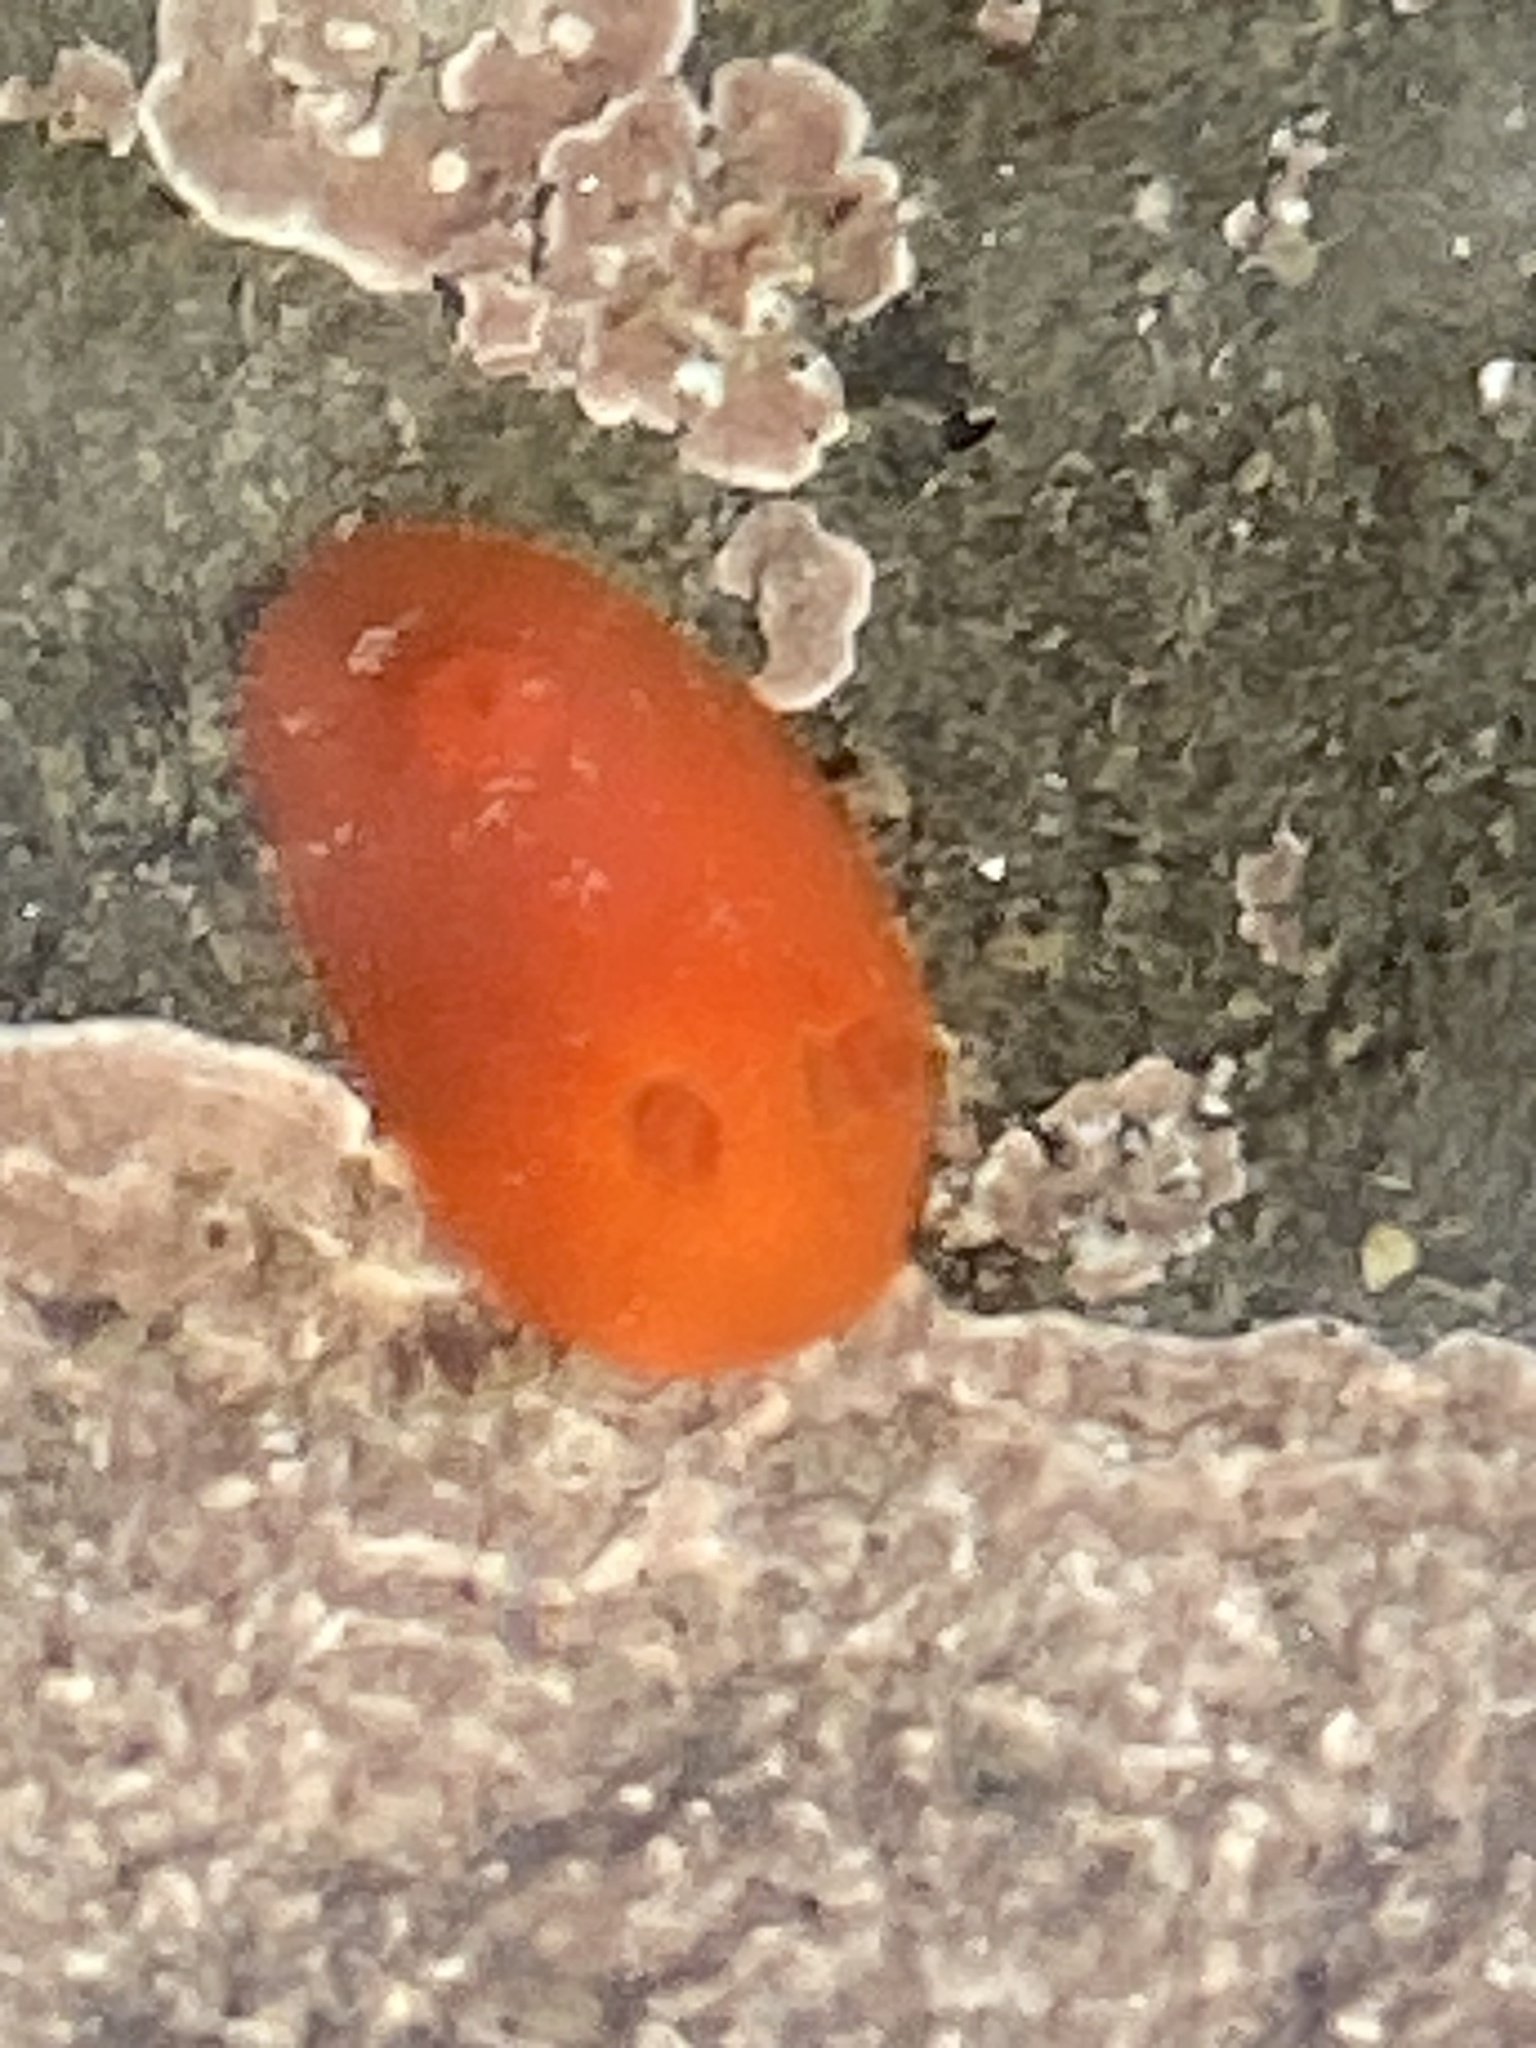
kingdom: Animalia
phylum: Mollusca
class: Gastropoda
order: Nudibranchia
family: Discodorididae
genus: Rostanga
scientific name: Rostanga pulchra
